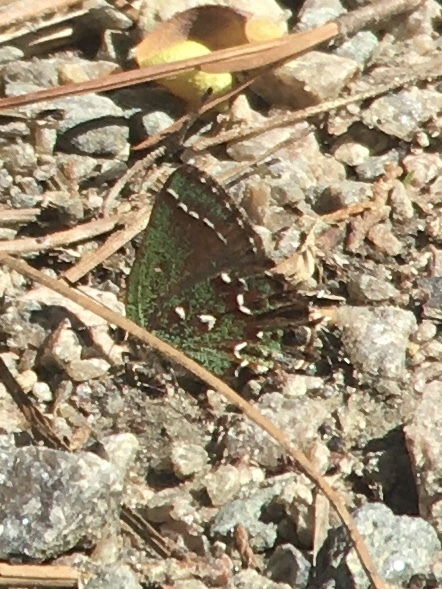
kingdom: Animalia
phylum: Arthropoda
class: Insecta
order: Lepidoptera
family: Lycaenidae
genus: Mitoura
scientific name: Mitoura hesseli
